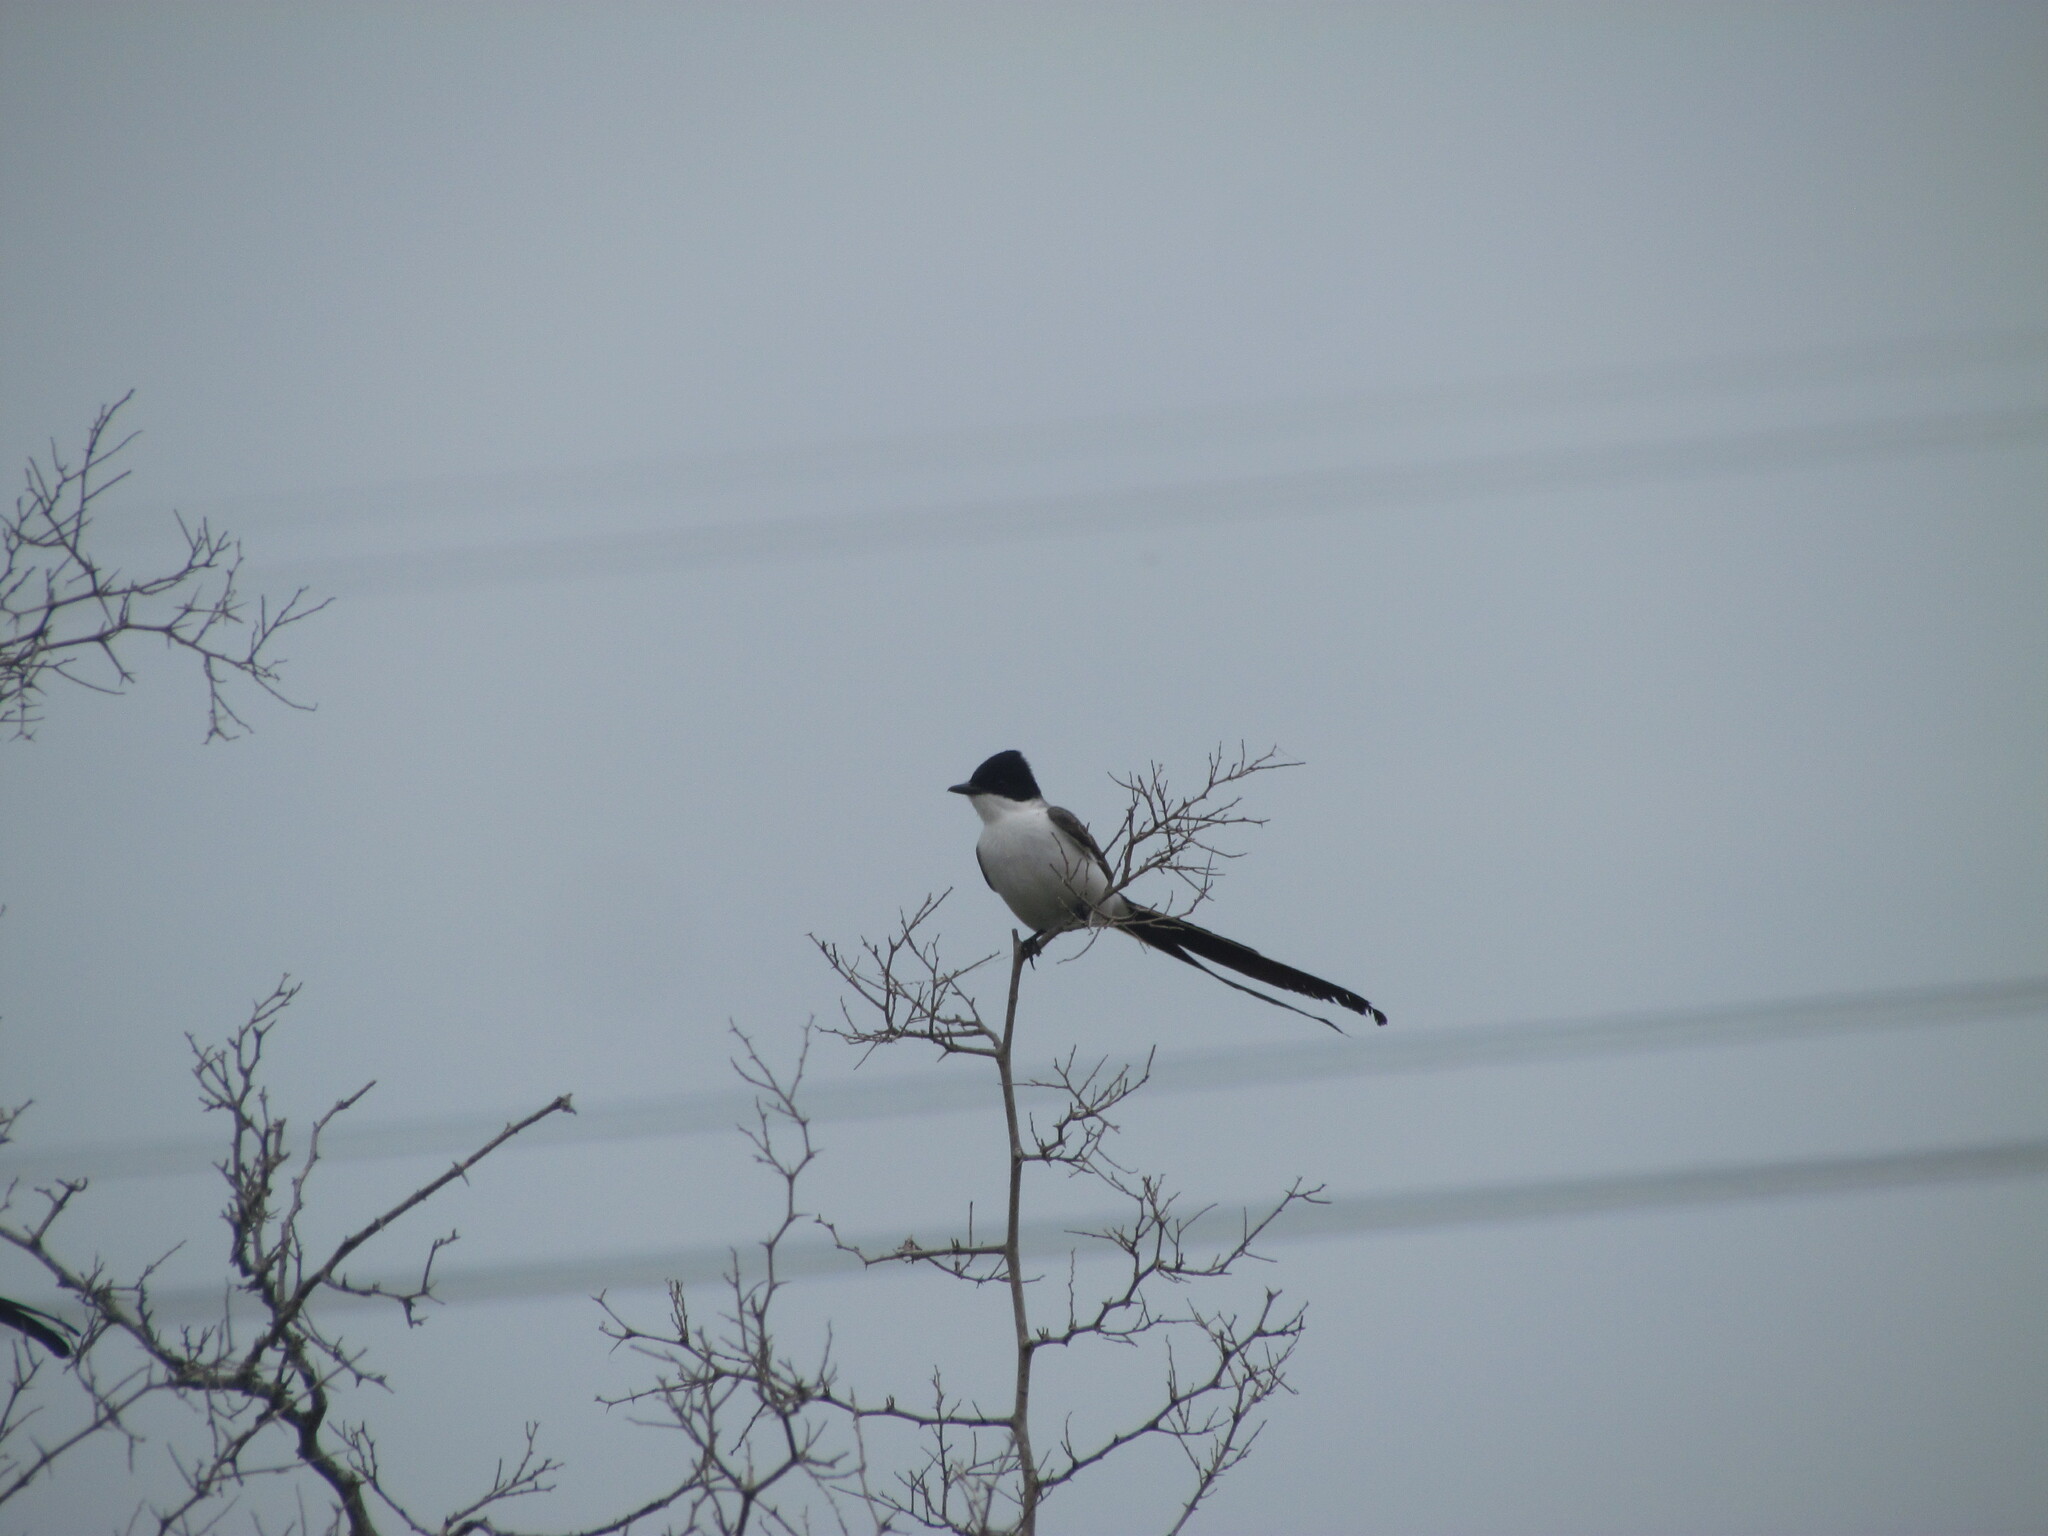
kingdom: Animalia
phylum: Chordata
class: Aves
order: Passeriformes
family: Tyrannidae
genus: Tyrannus
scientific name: Tyrannus savana
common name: Fork-tailed flycatcher
